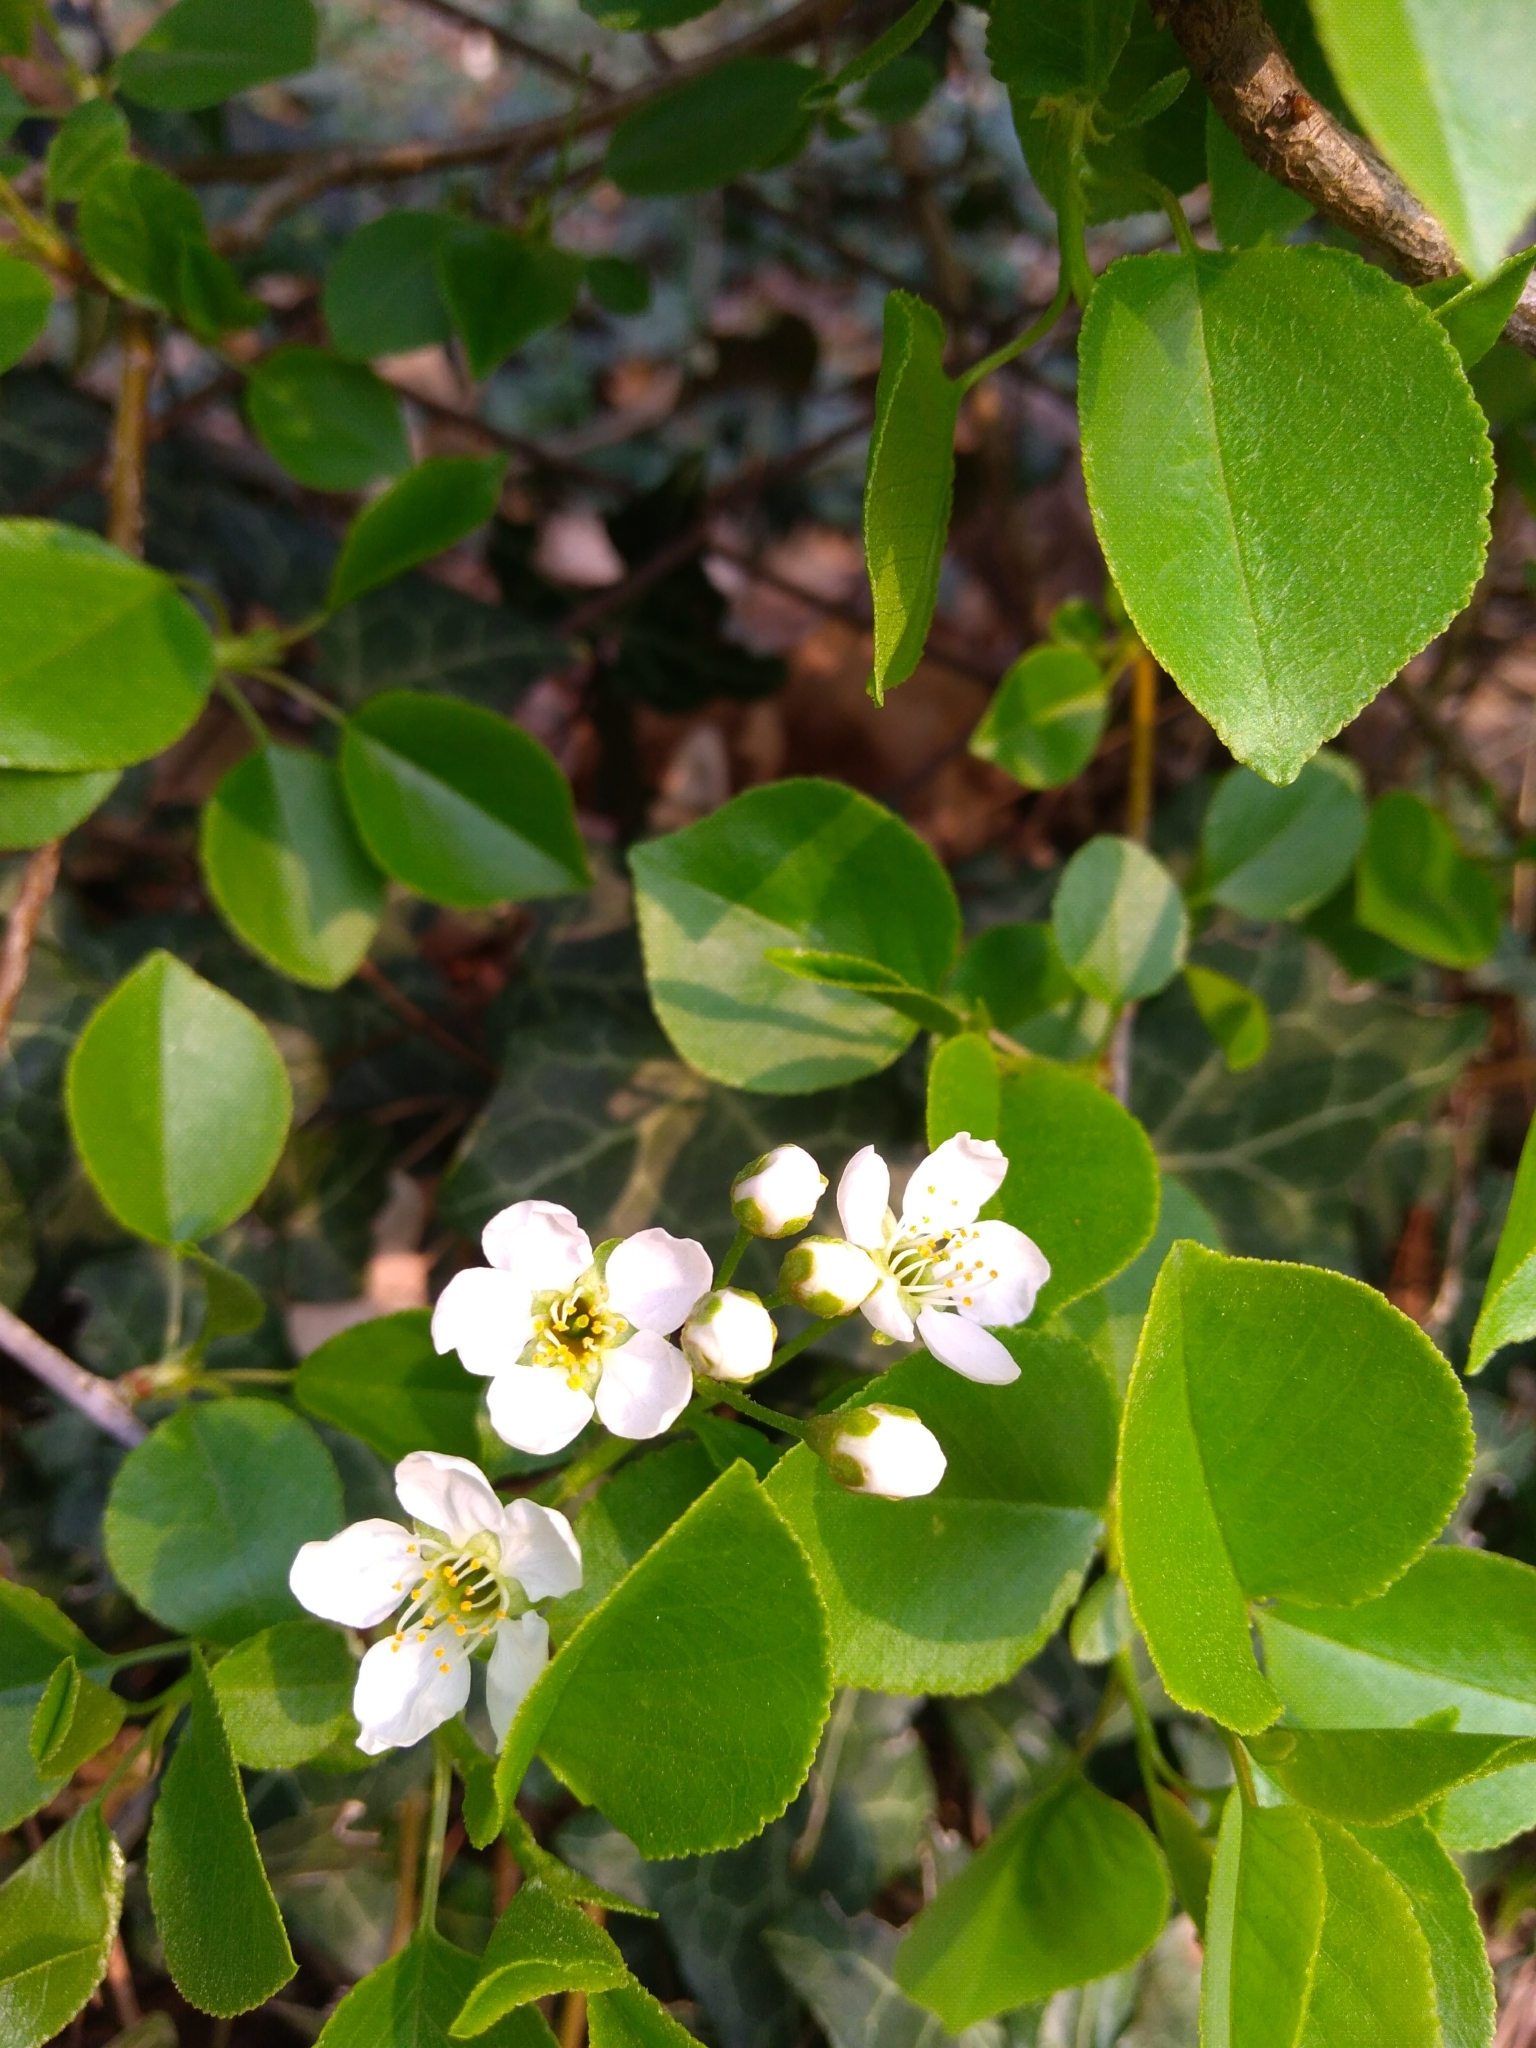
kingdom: Plantae
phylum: Tracheophyta
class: Magnoliopsida
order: Rosales
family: Rosaceae
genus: Prunus
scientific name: Prunus mahaleb
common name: Mahaleb cherry
